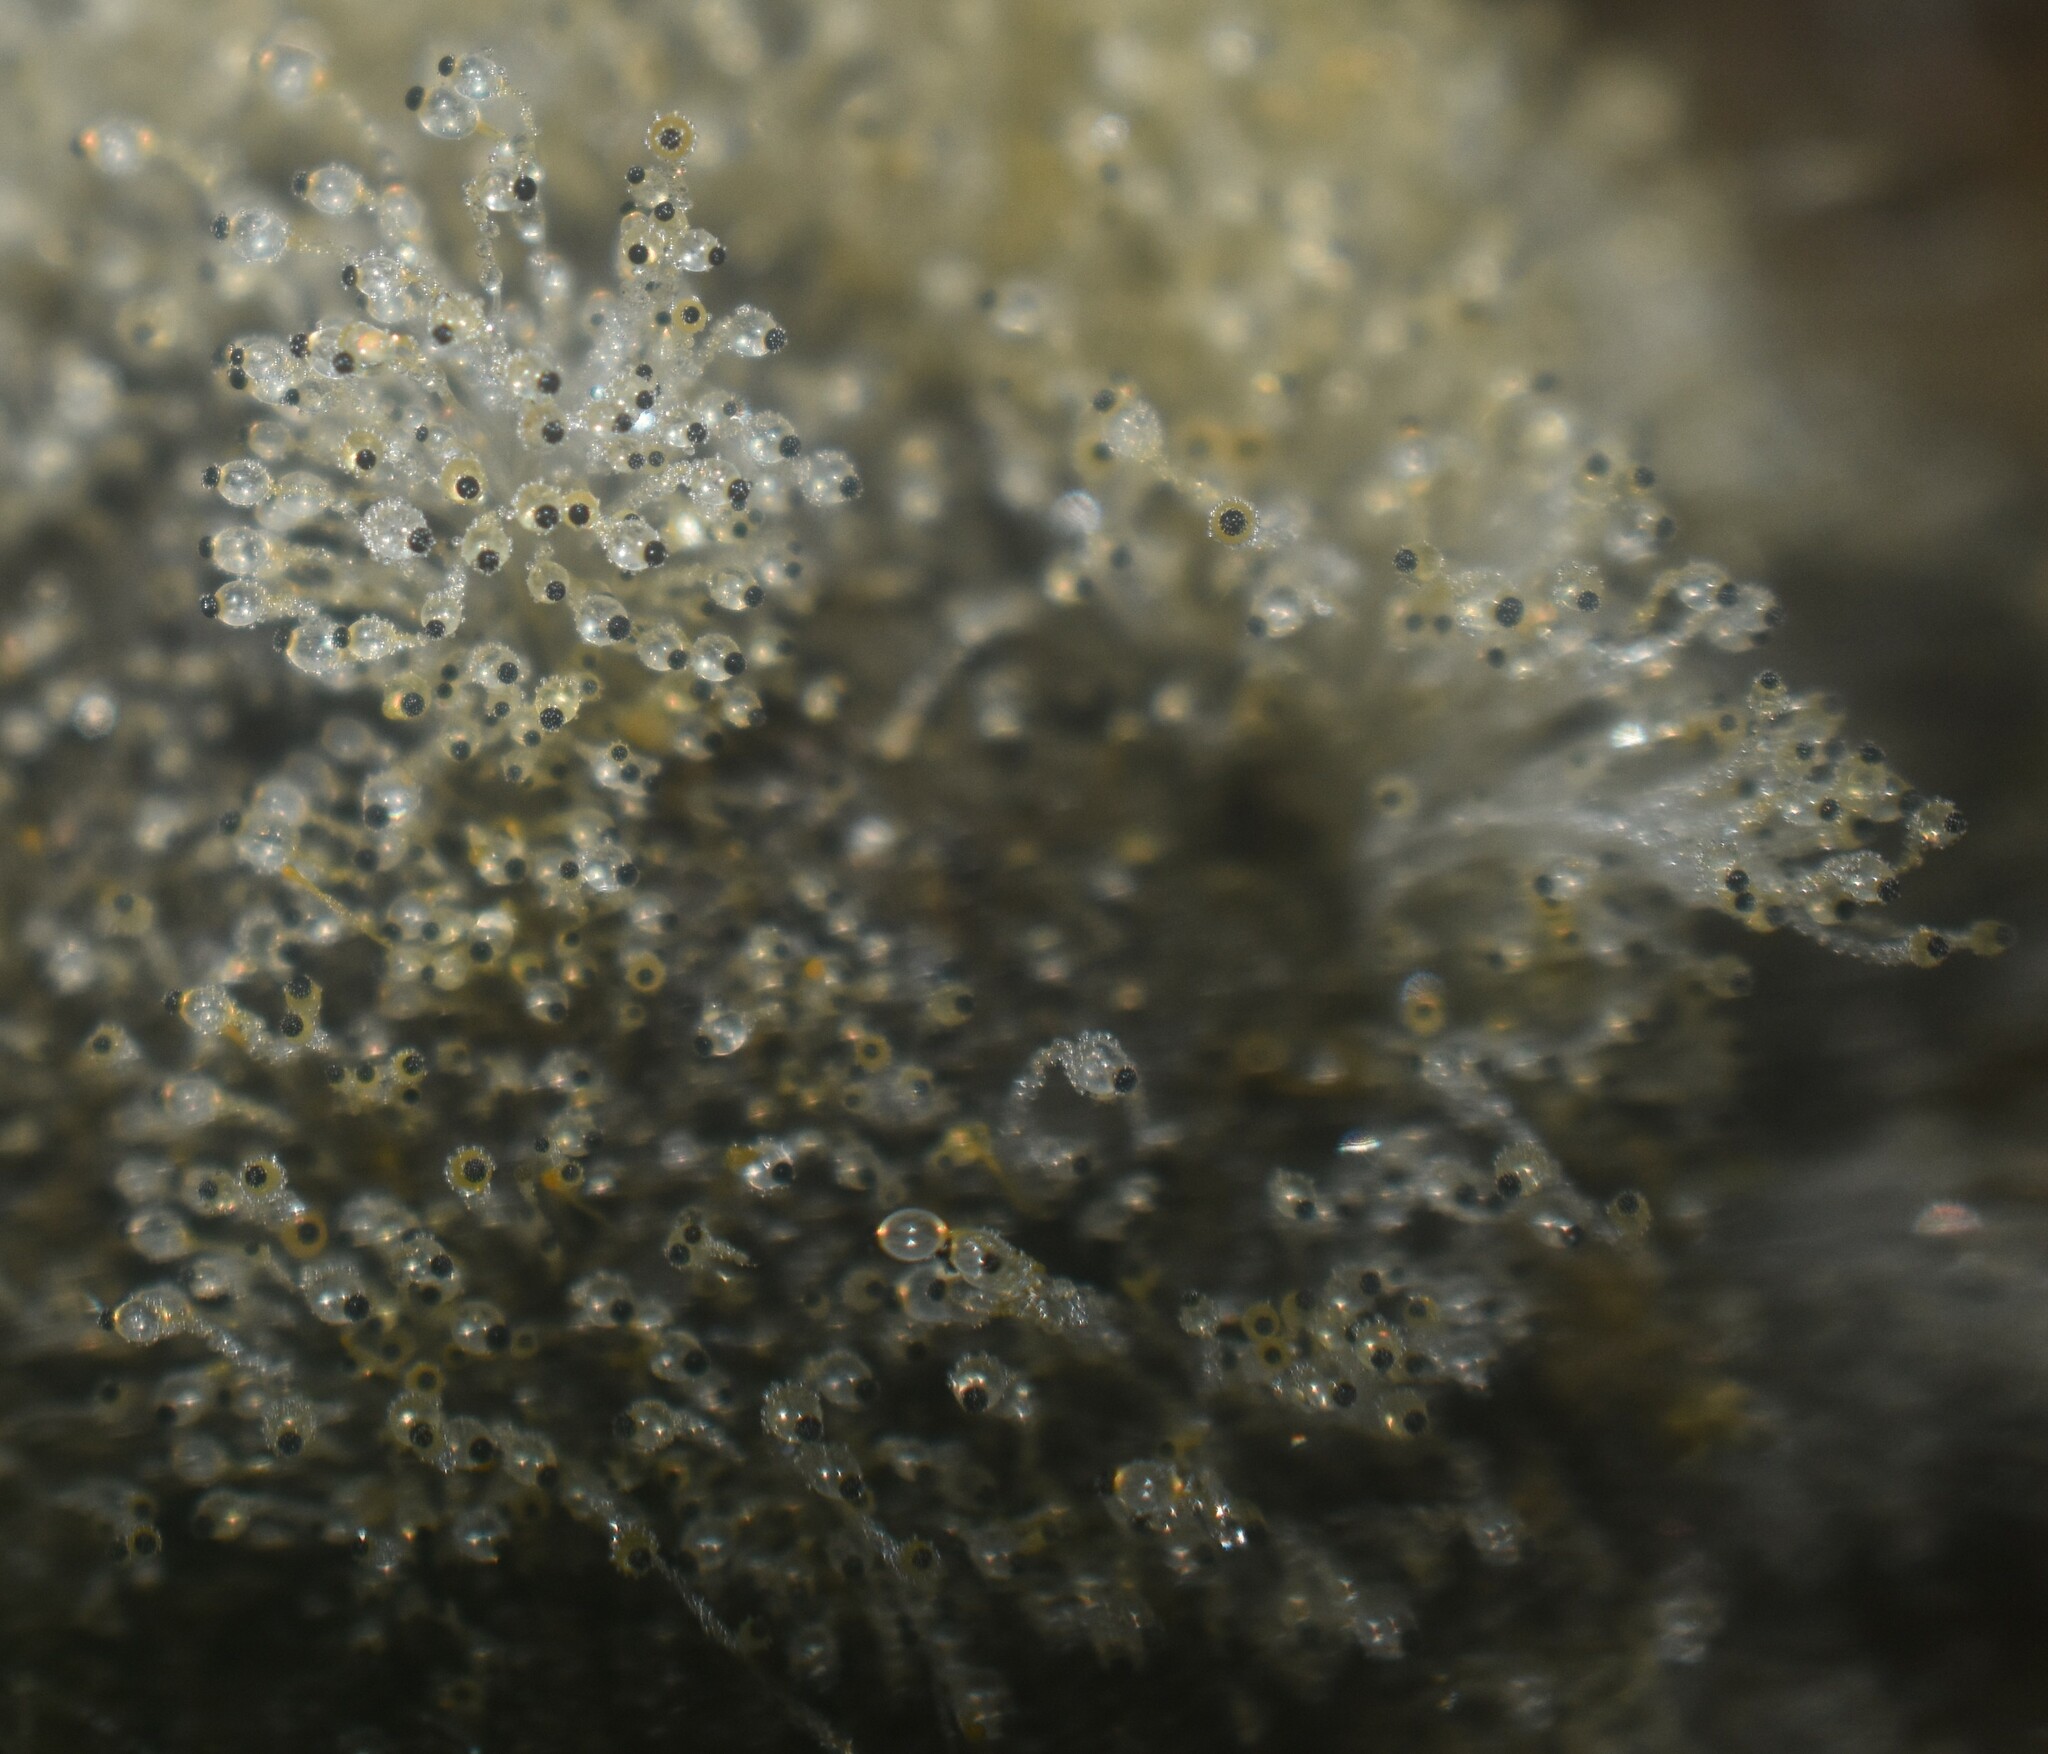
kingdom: Fungi
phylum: Mucoromycota
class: Mucoromycetes
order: Mucorales
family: Pilobolaceae
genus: Pilobolus
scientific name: Pilobolus
